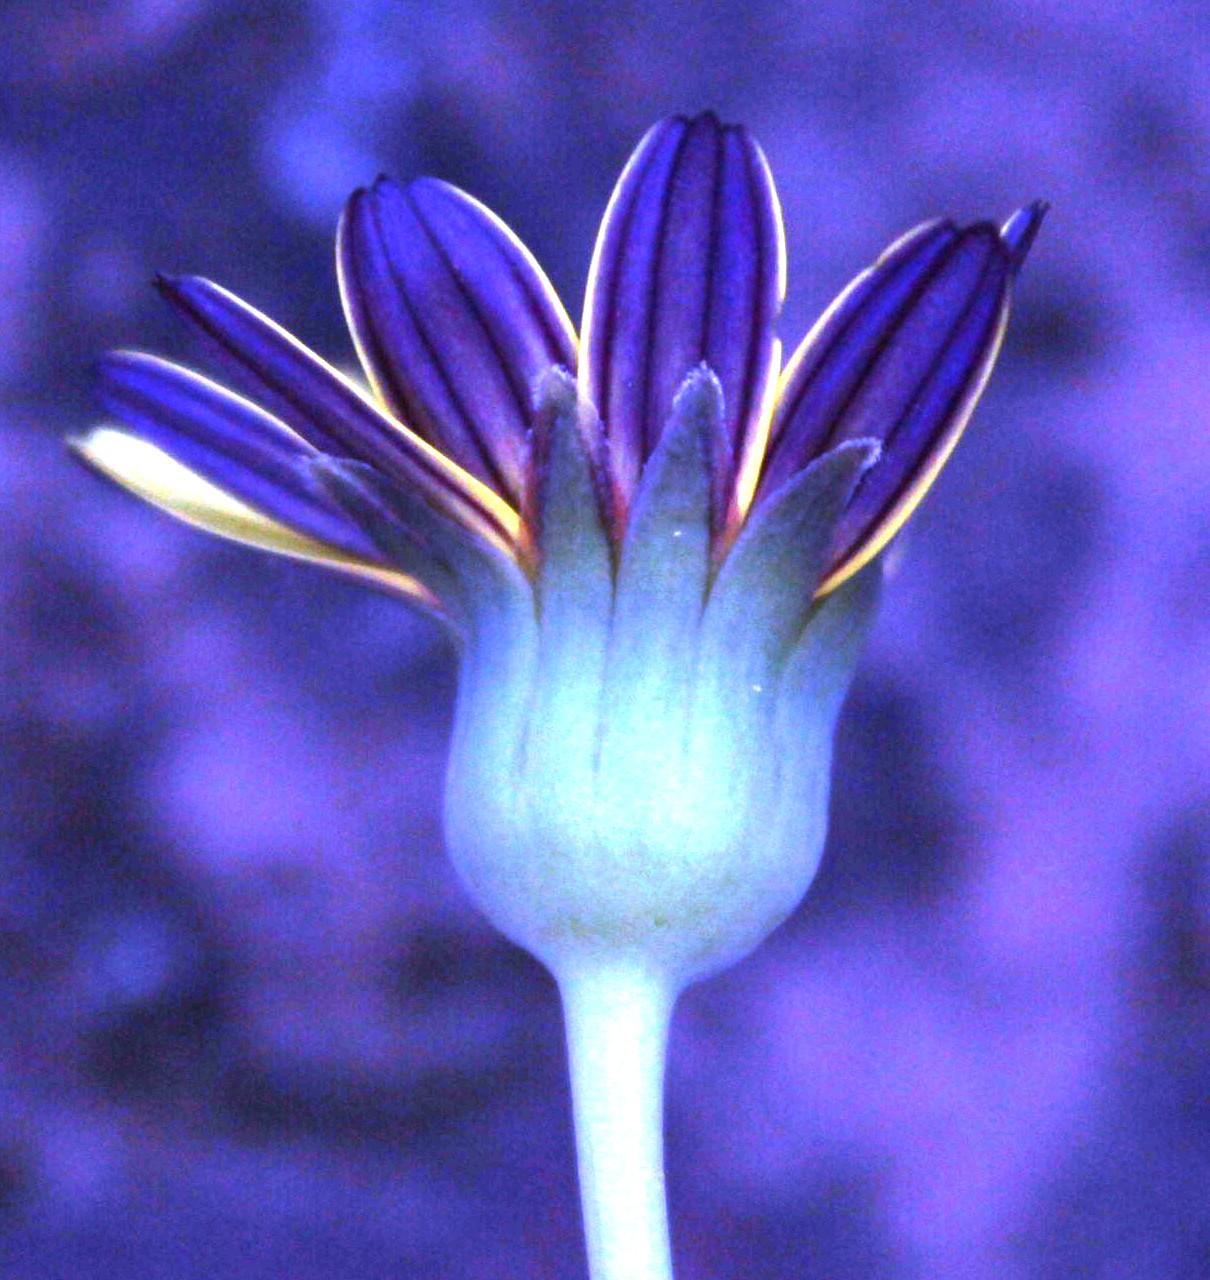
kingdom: Plantae
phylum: Tracheophyta
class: Magnoliopsida
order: Asterales
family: Asteraceae
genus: Othonna
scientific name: Othonna oleracea
